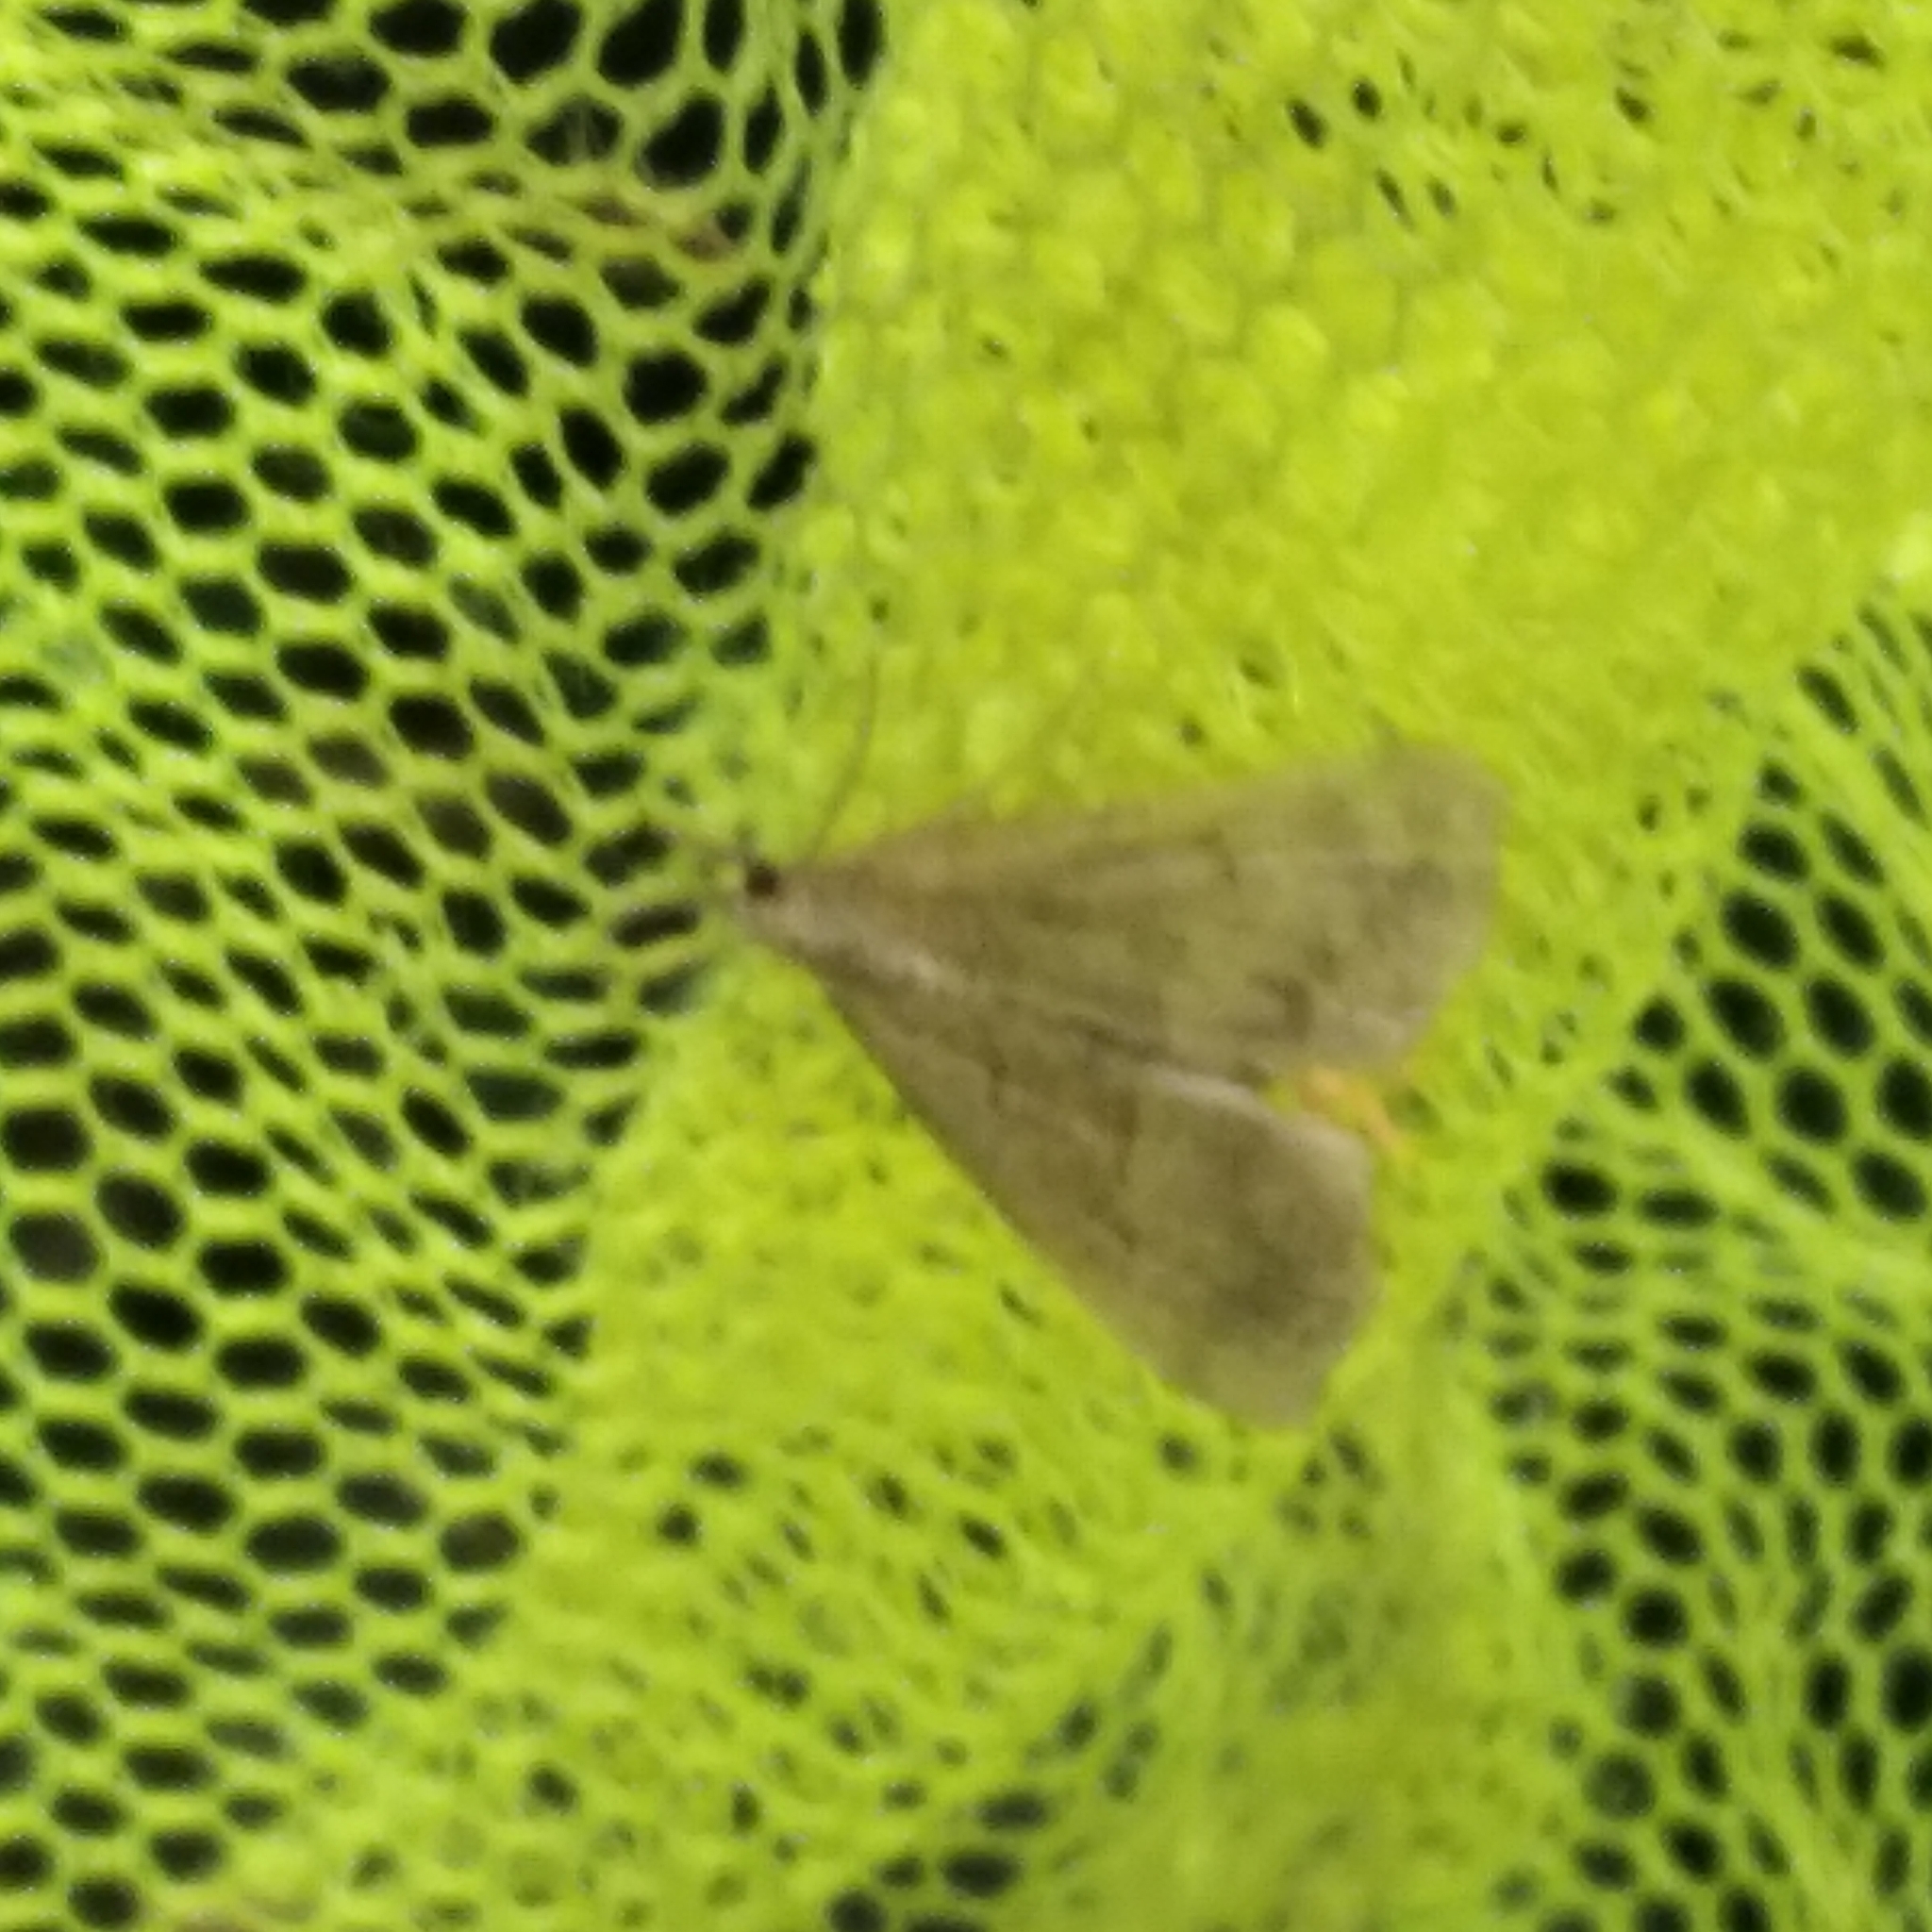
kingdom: Animalia
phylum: Arthropoda
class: Insecta
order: Lepidoptera
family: Crambidae
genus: Ostrinia
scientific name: Ostrinia nubilalis
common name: European corn borer
